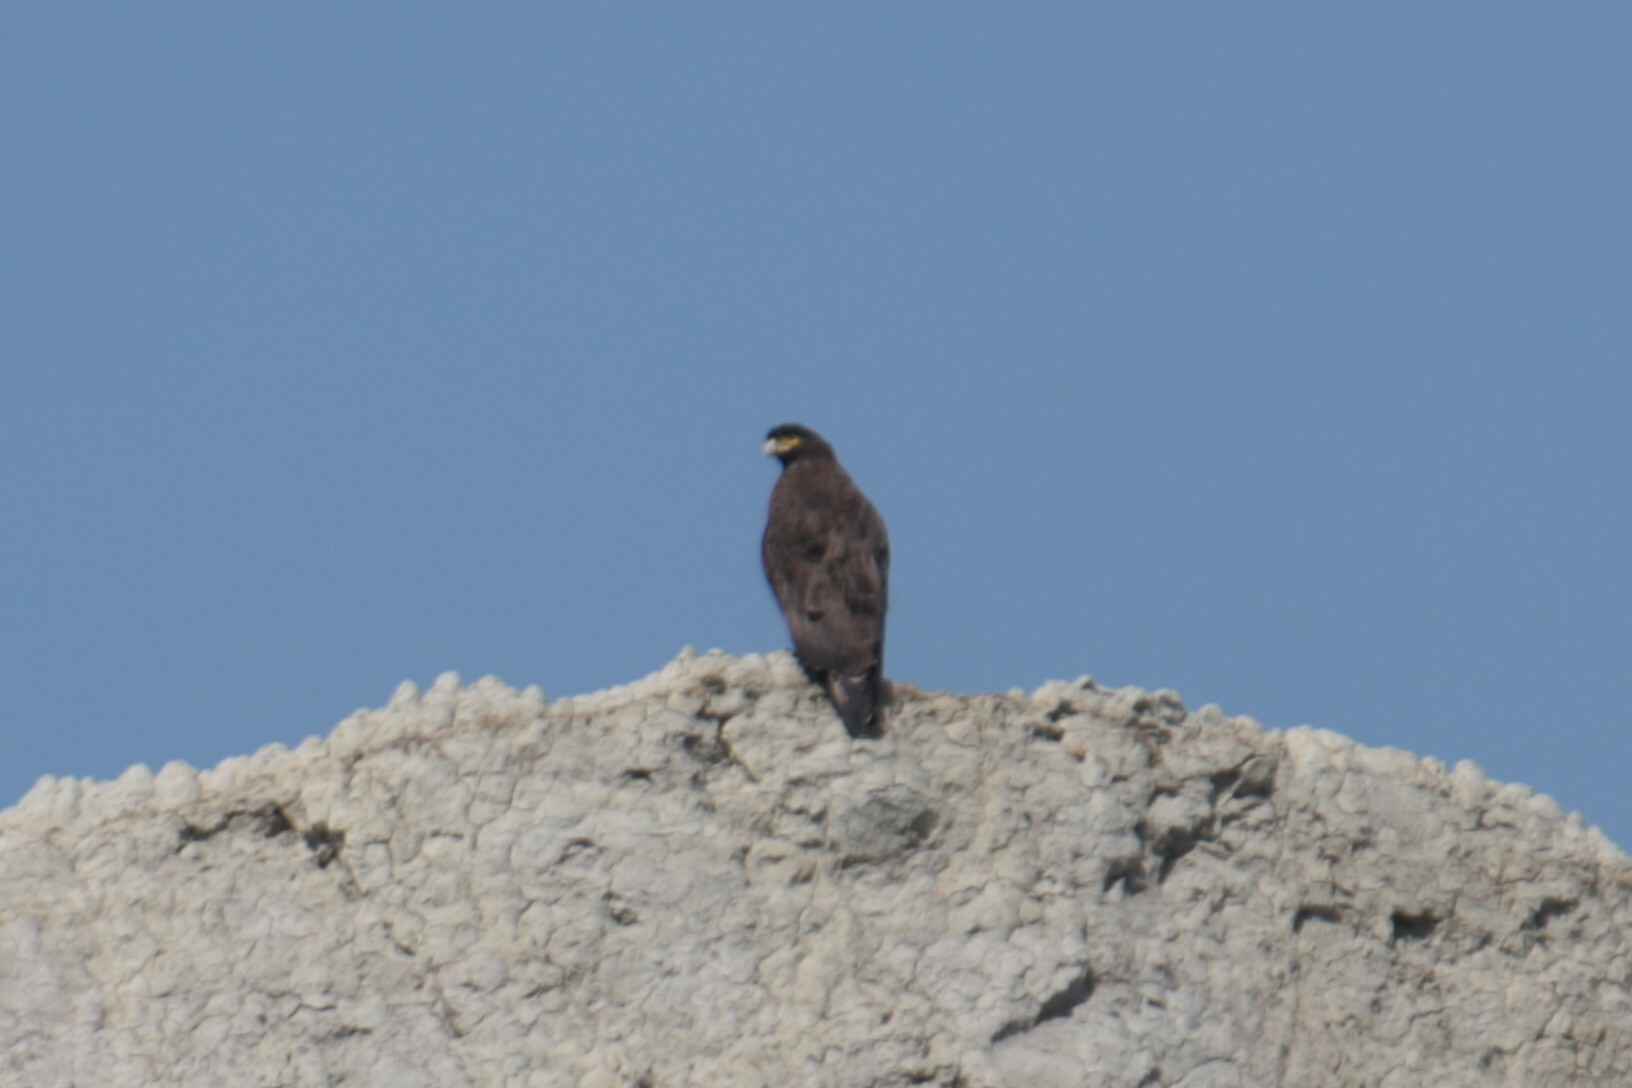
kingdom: Animalia
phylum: Chordata
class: Aves
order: Accipitriformes
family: Accipitridae
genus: Spilornis
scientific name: Spilornis cheela
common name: Crested serpent eagle
